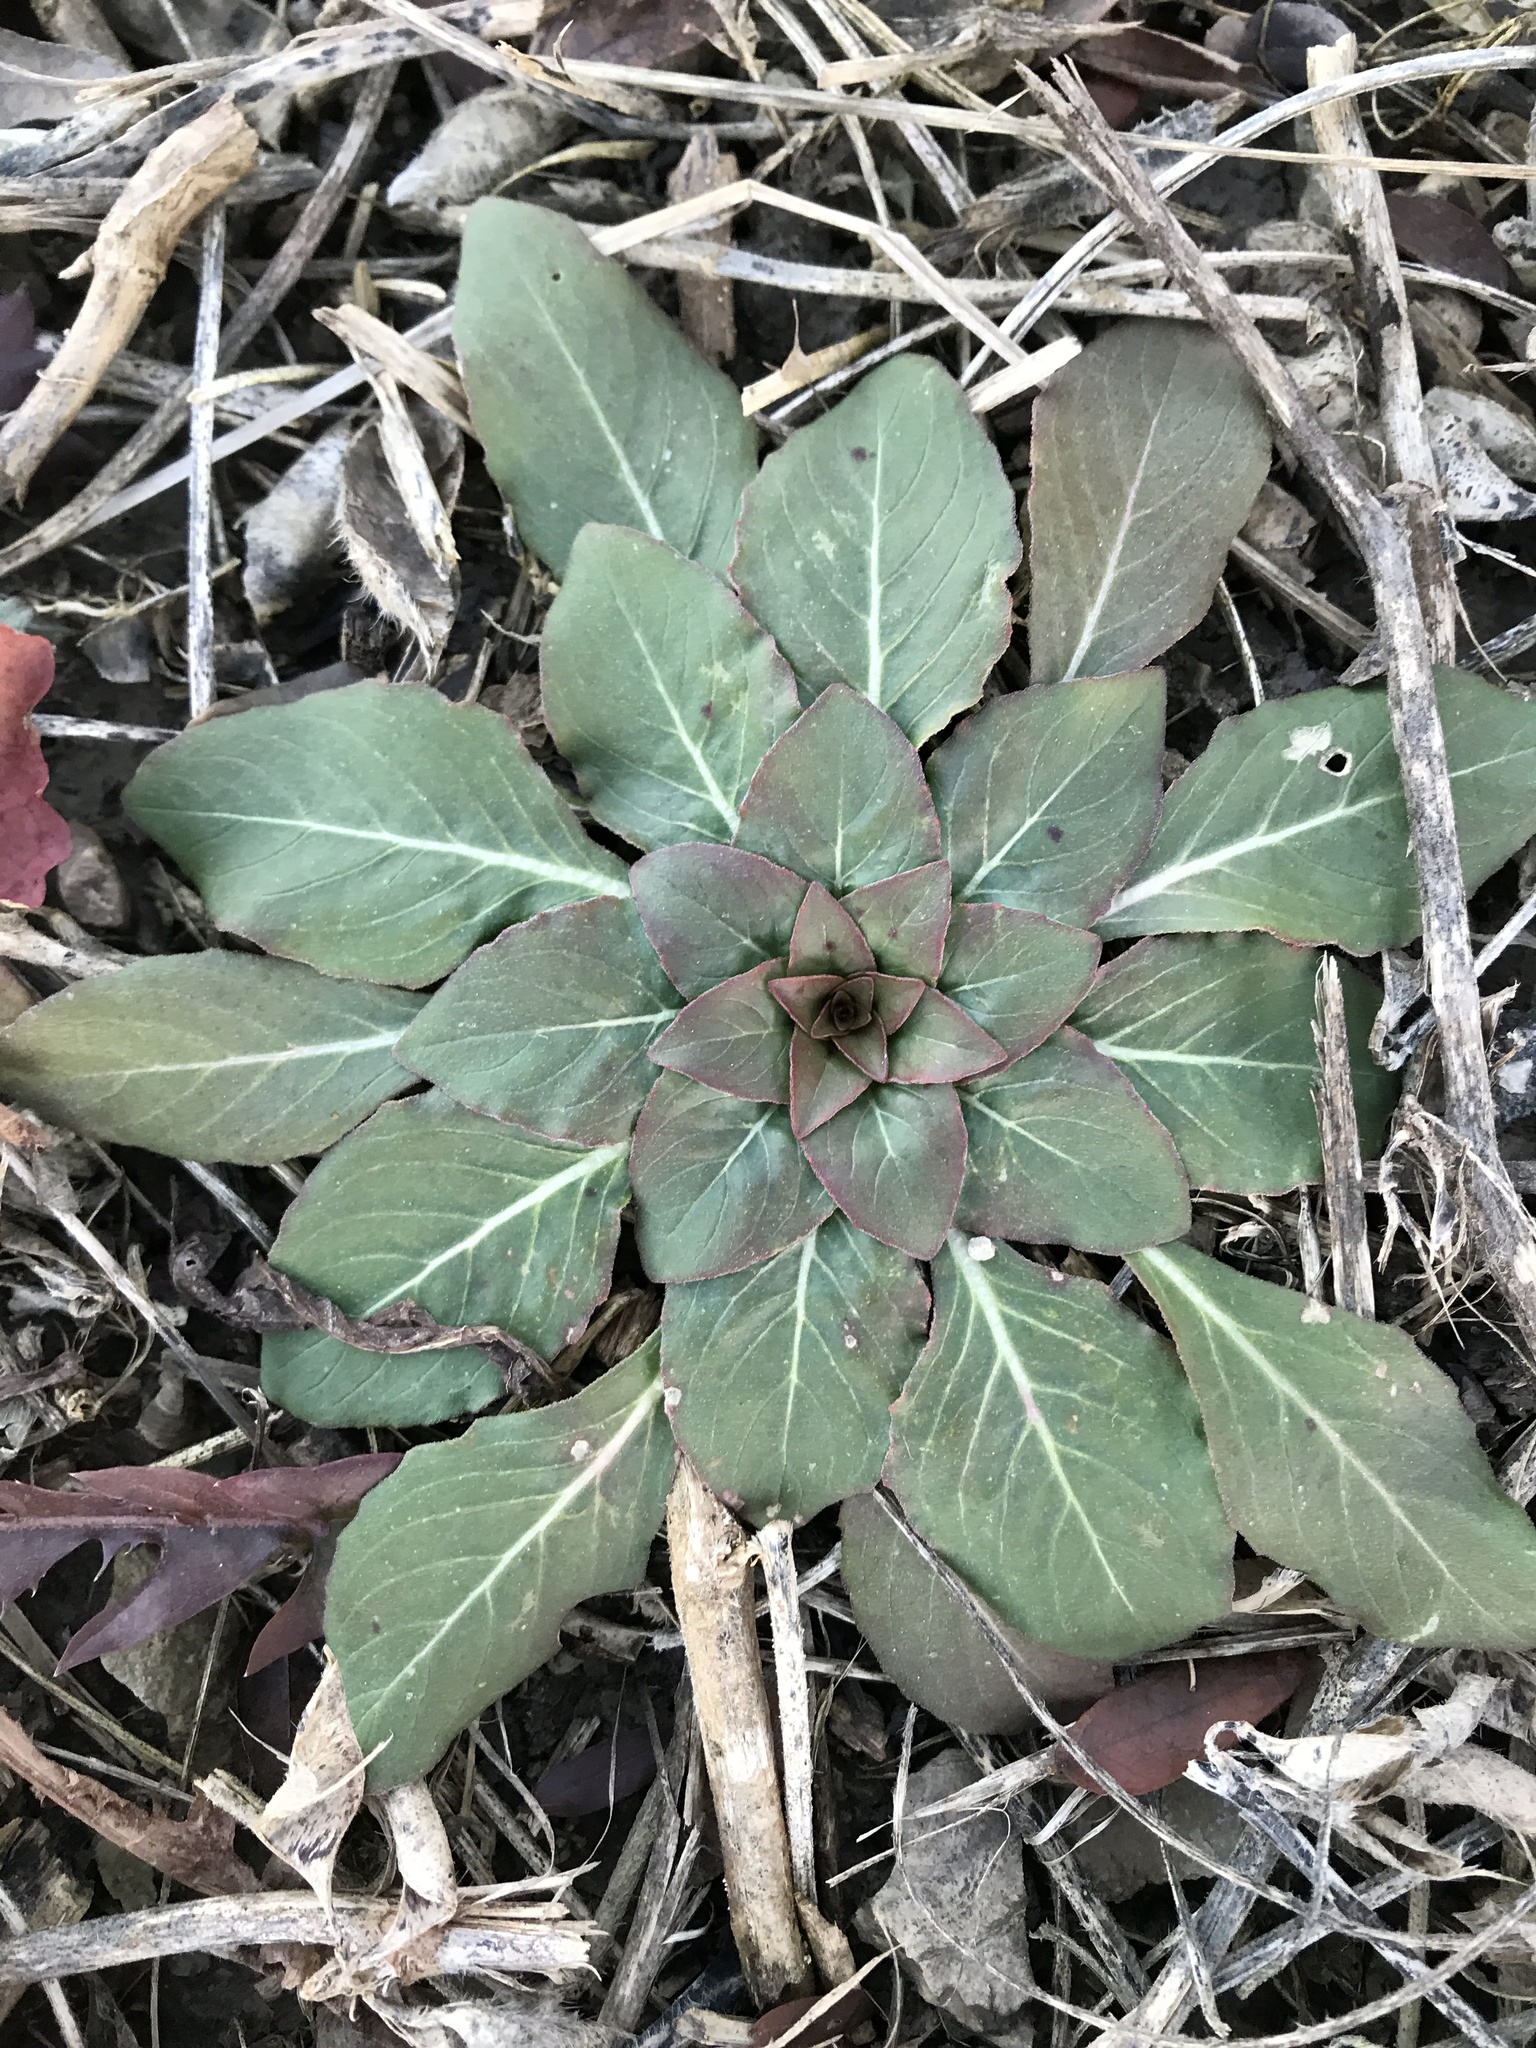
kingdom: Plantae
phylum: Tracheophyta
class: Magnoliopsida
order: Myrtales
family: Onagraceae
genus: Oenothera
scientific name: Oenothera biennis
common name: Common evening-primrose
